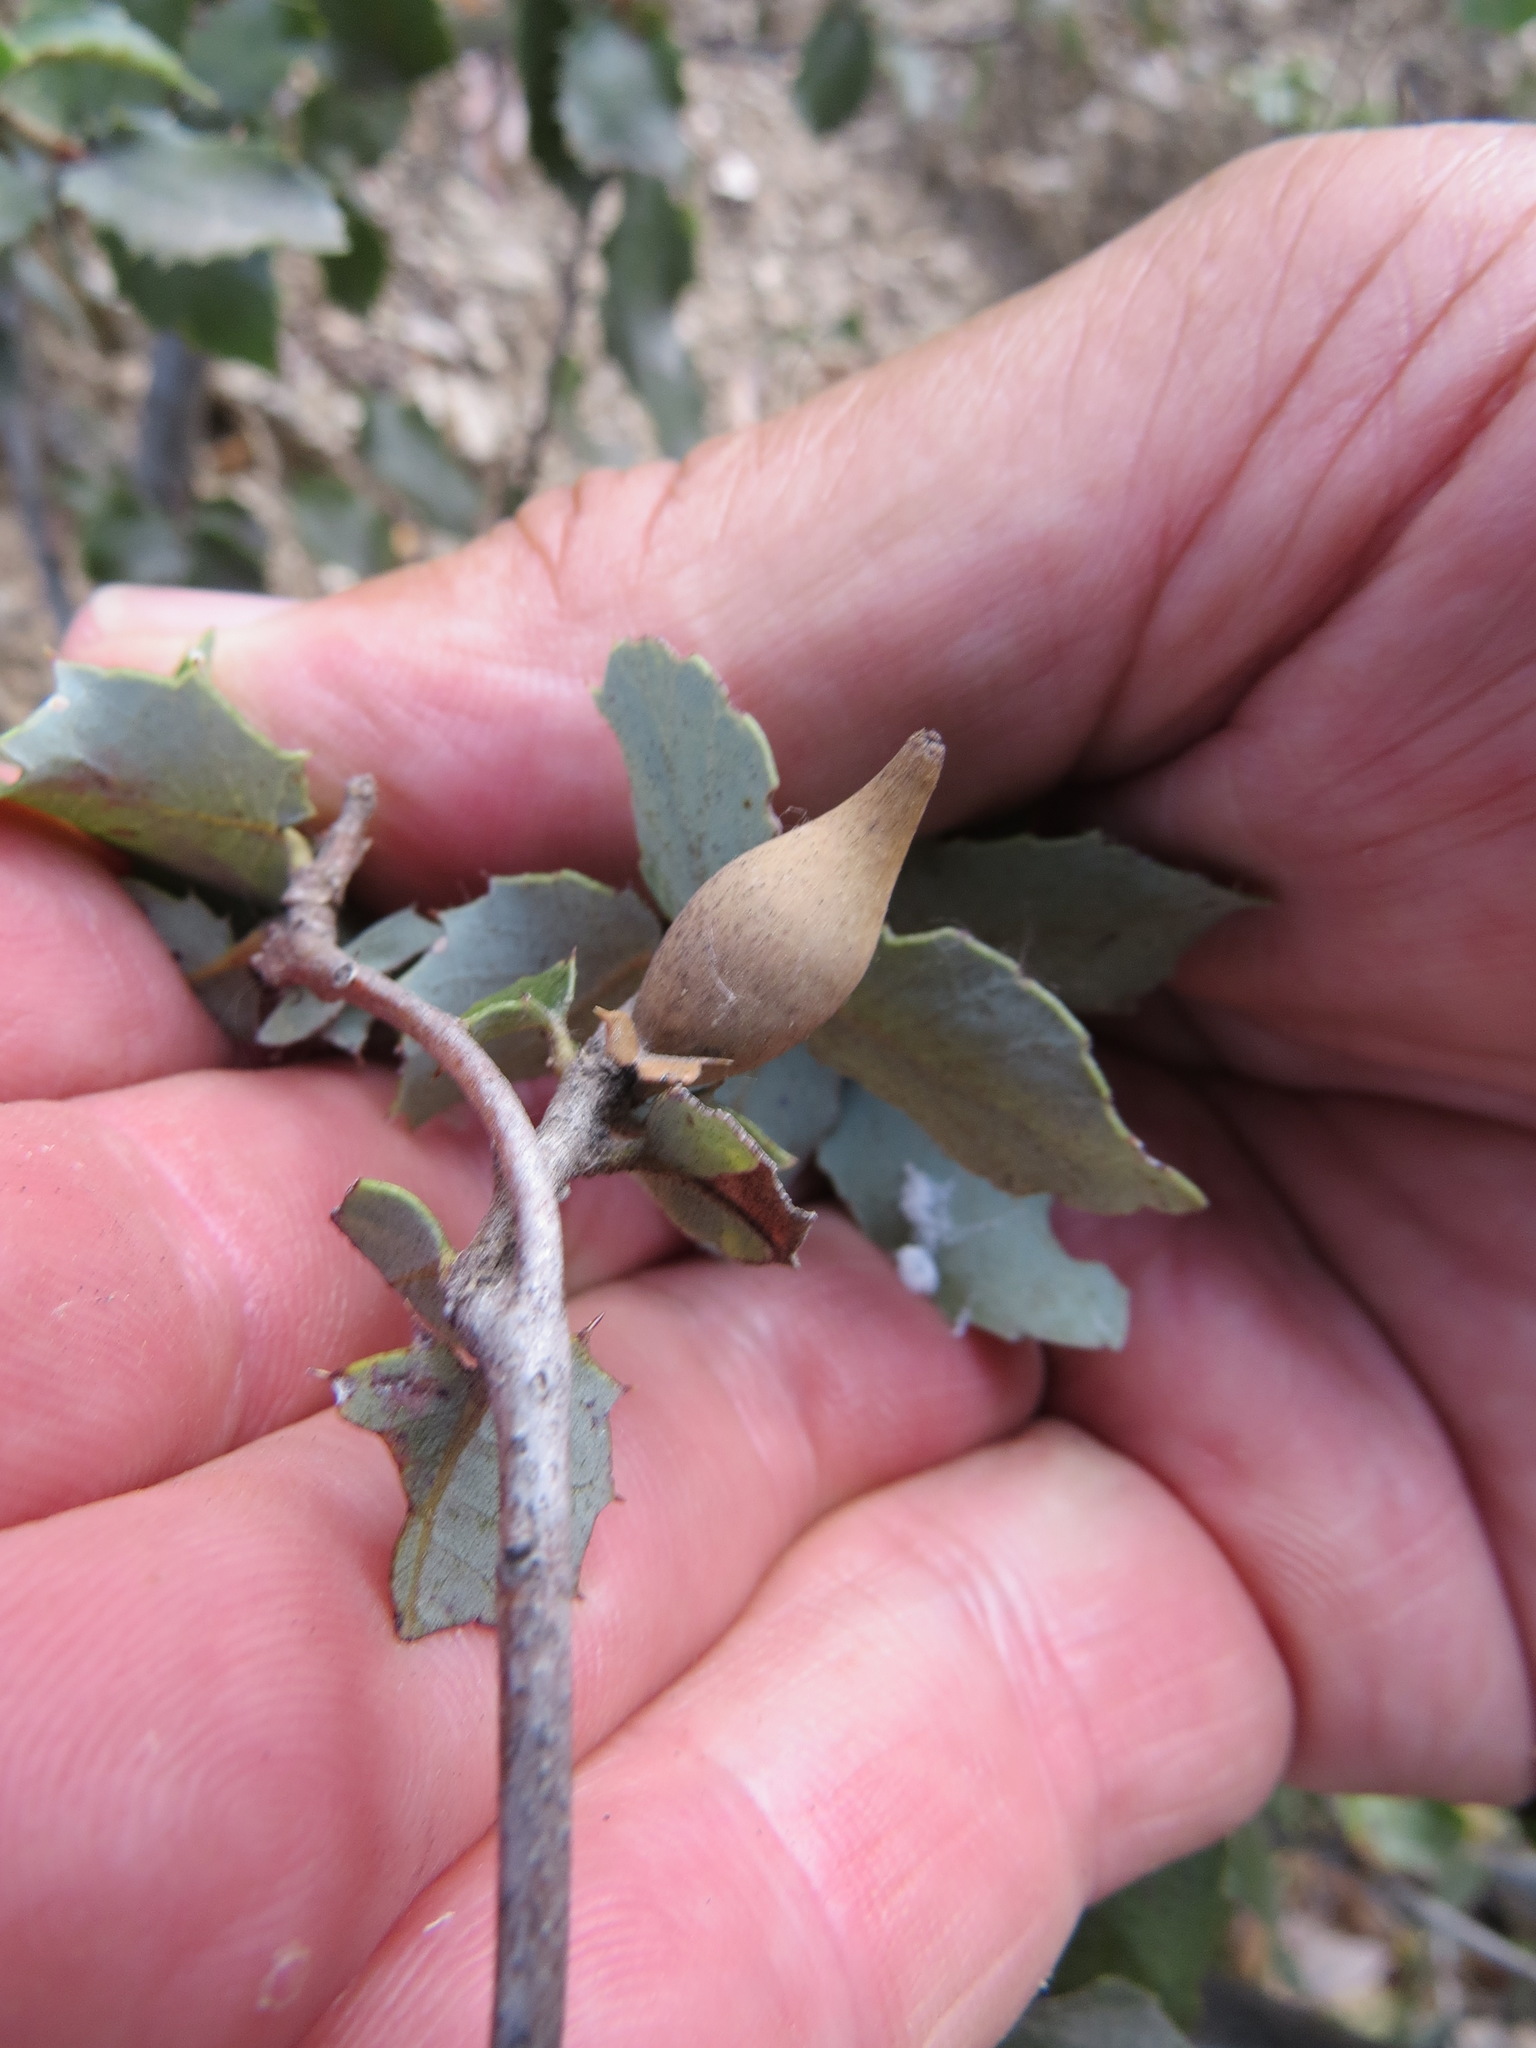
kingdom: Animalia
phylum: Arthropoda
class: Insecta
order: Hymenoptera
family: Cynipidae
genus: Heteroecus
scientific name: Heteroecus pacificus
